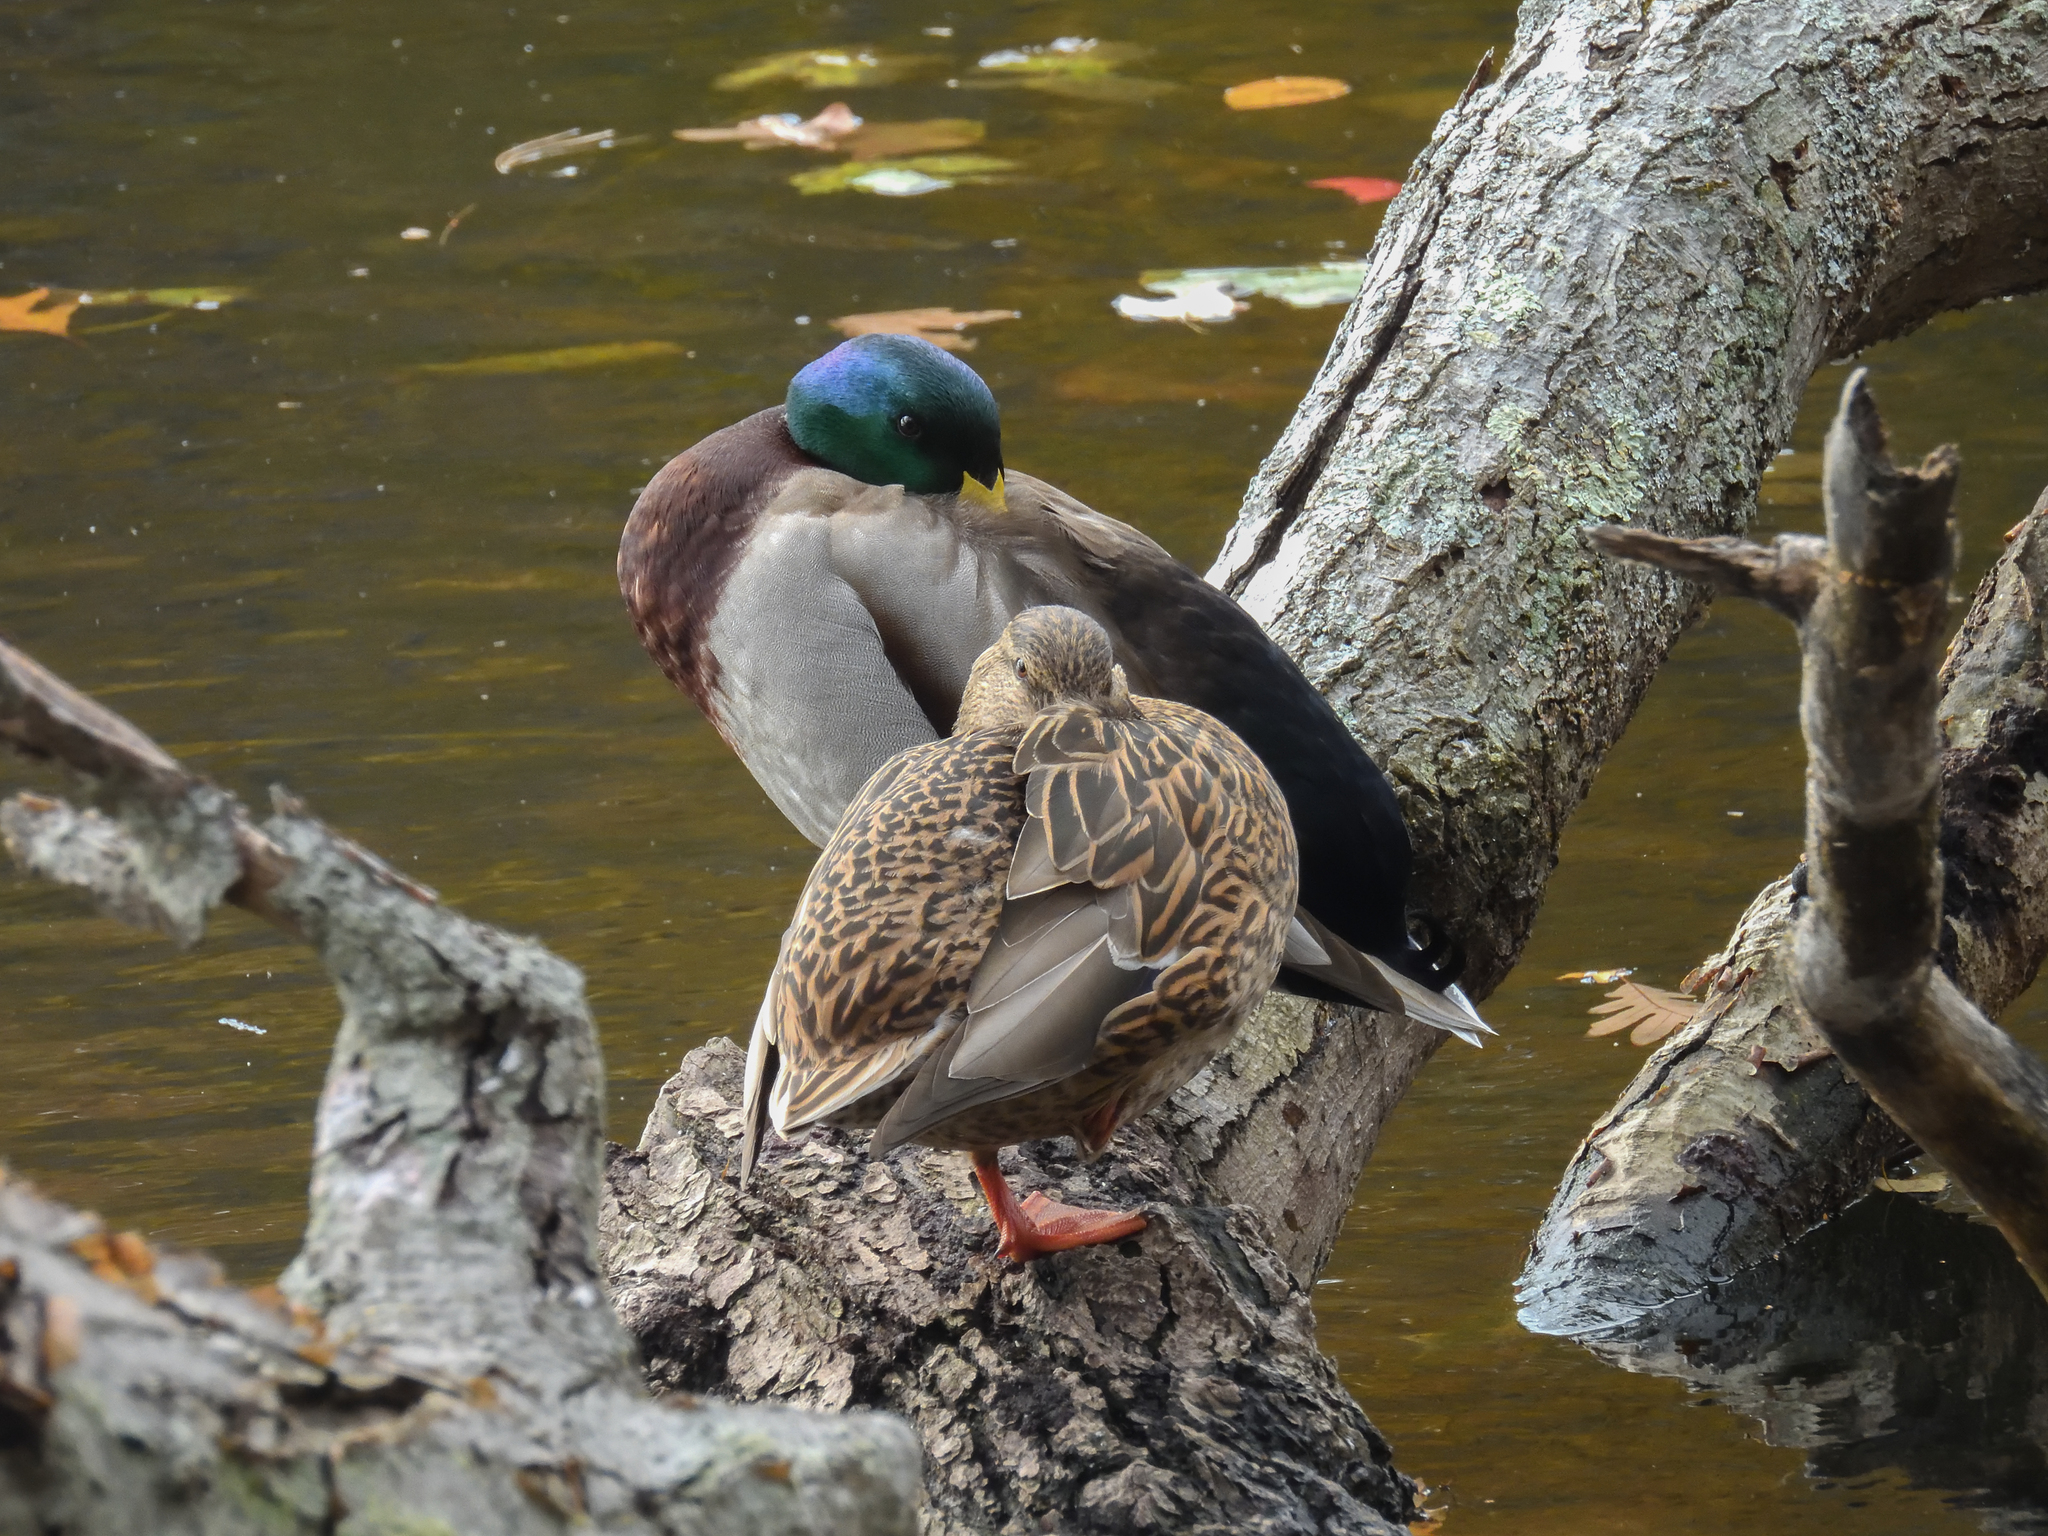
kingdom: Animalia
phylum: Chordata
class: Aves
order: Anseriformes
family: Anatidae
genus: Anas
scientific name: Anas platyrhynchos
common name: Mallard
